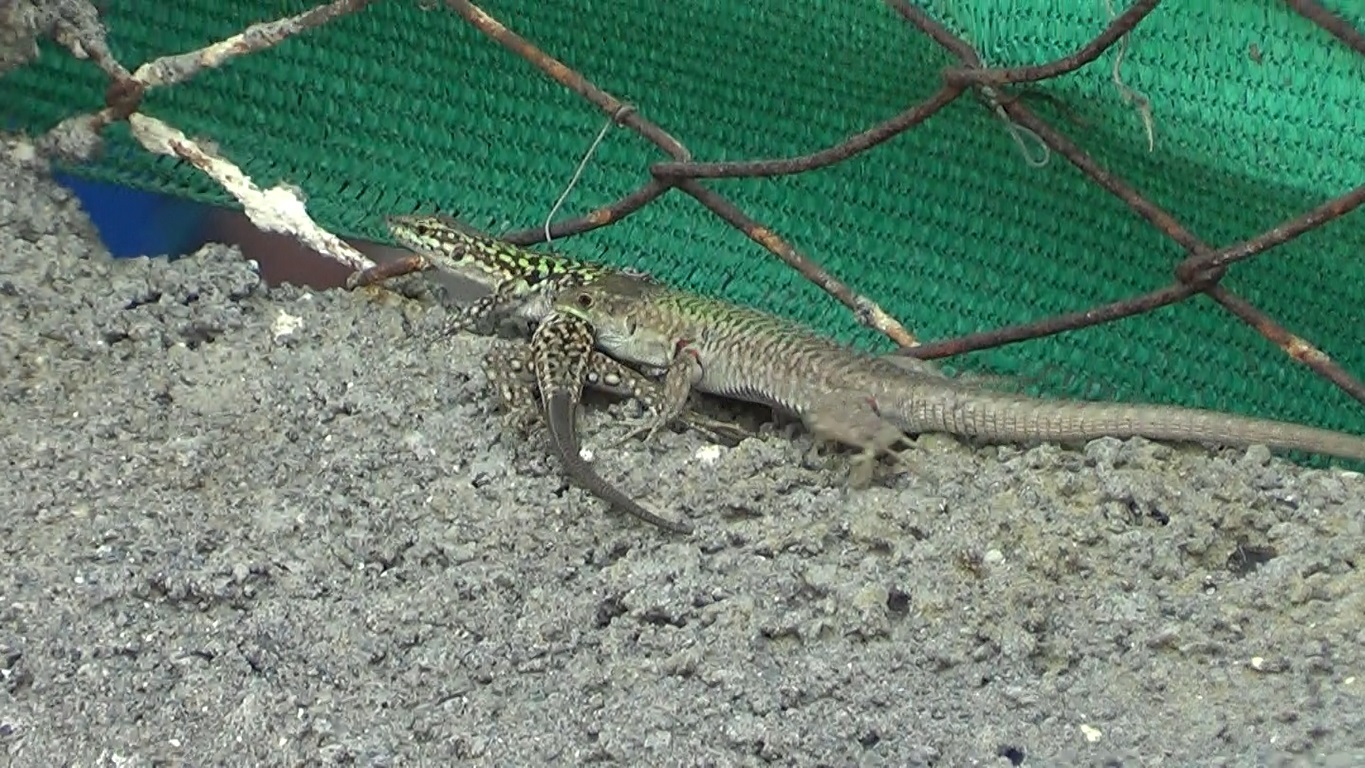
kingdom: Animalia
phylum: Chordata
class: Squamata
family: Lacertidae
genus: Podarcis
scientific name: Podarcis siculus
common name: Italian wall lizard
